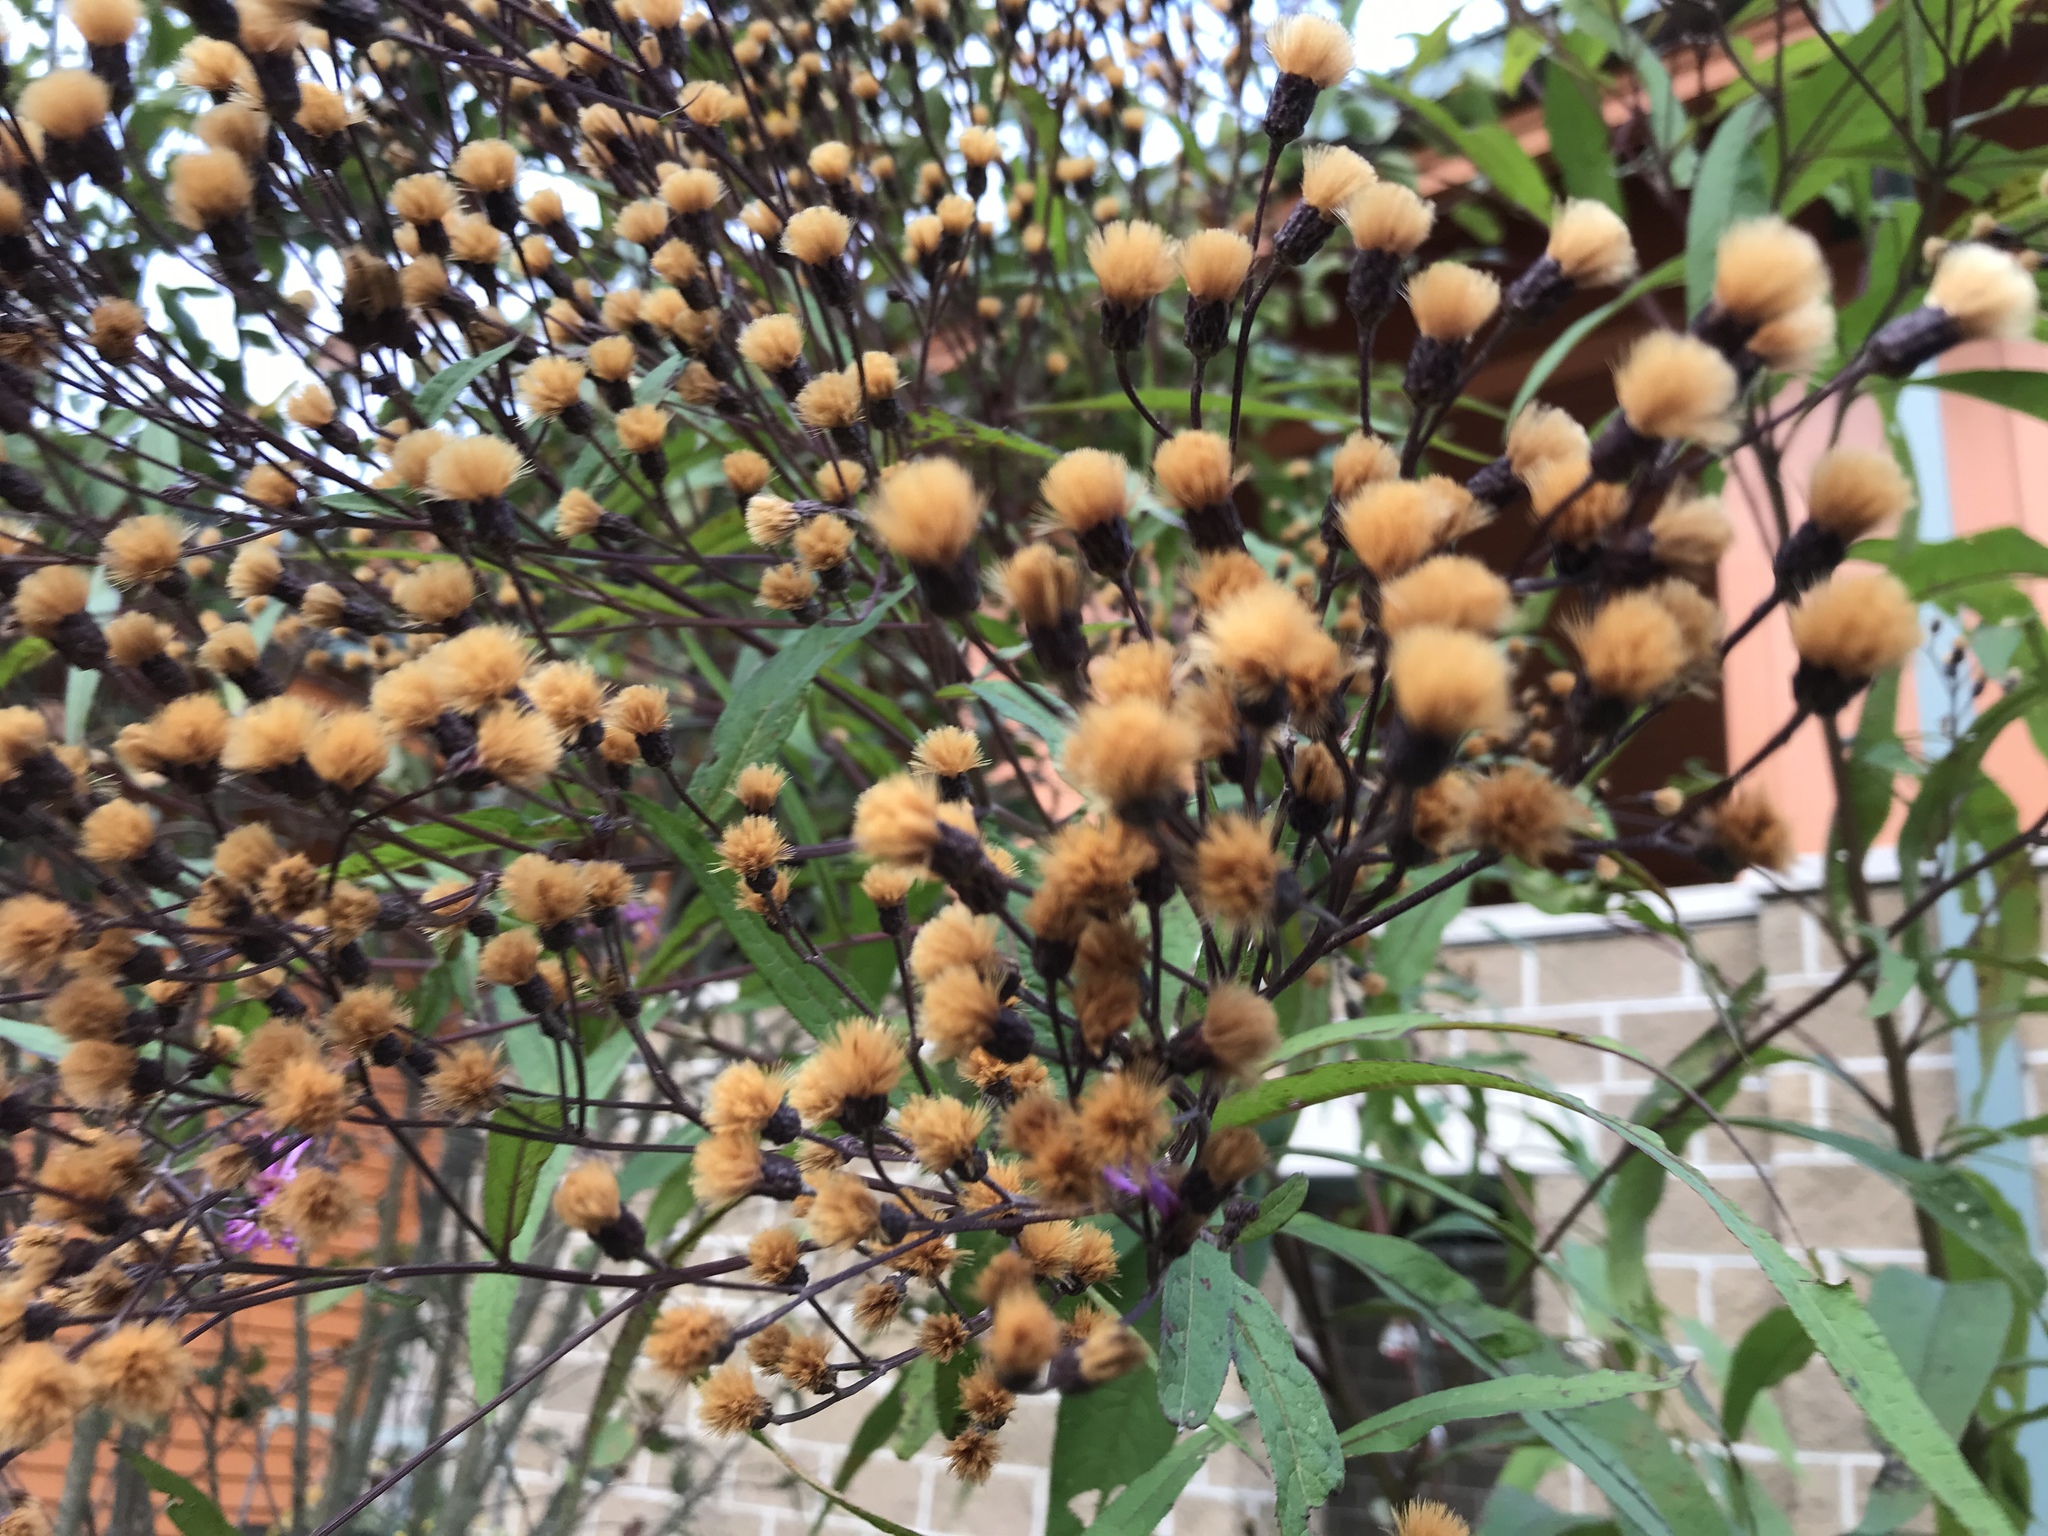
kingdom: Plantae
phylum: Tracheophyta
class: Magnoliopsida
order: Asterales
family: Asteraceae
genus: Vernonia
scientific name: Vernonia gigantea
